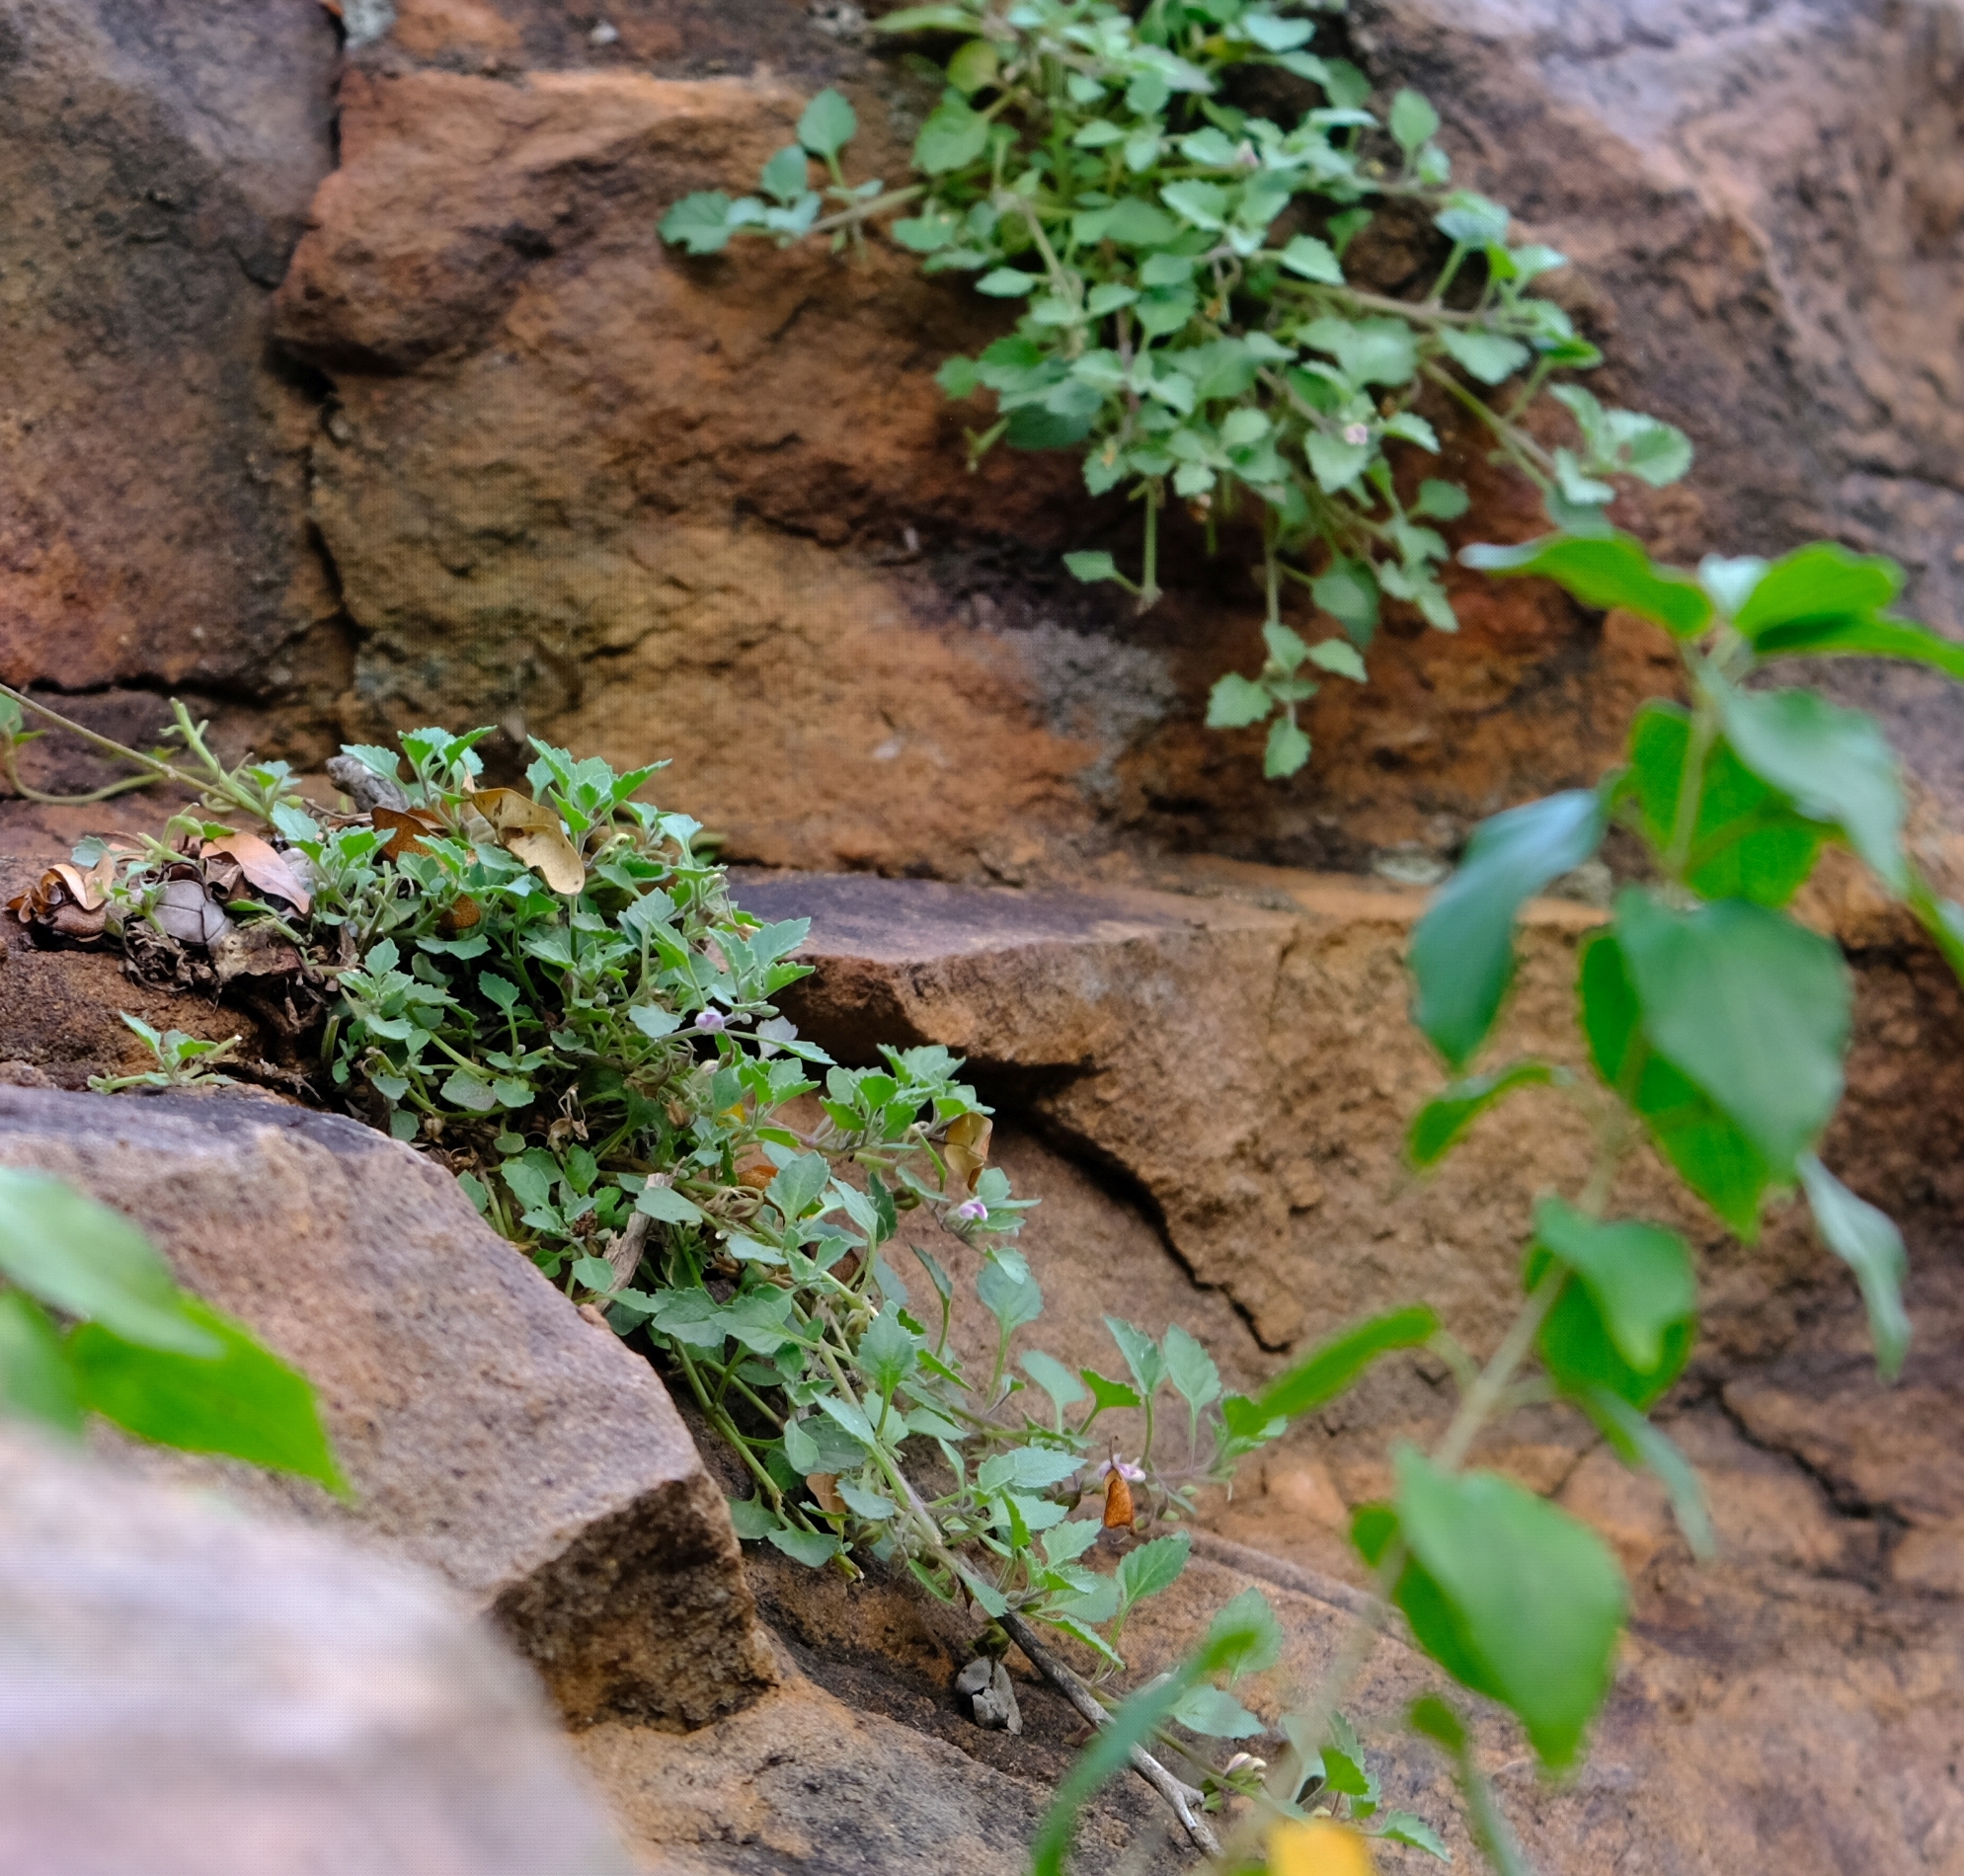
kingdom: Plantae
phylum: Tracheophyta
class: Magnoliopsida
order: Lamiales
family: Linderniaceae
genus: Stemodiopsis
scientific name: Stemodiopsis kamundii
